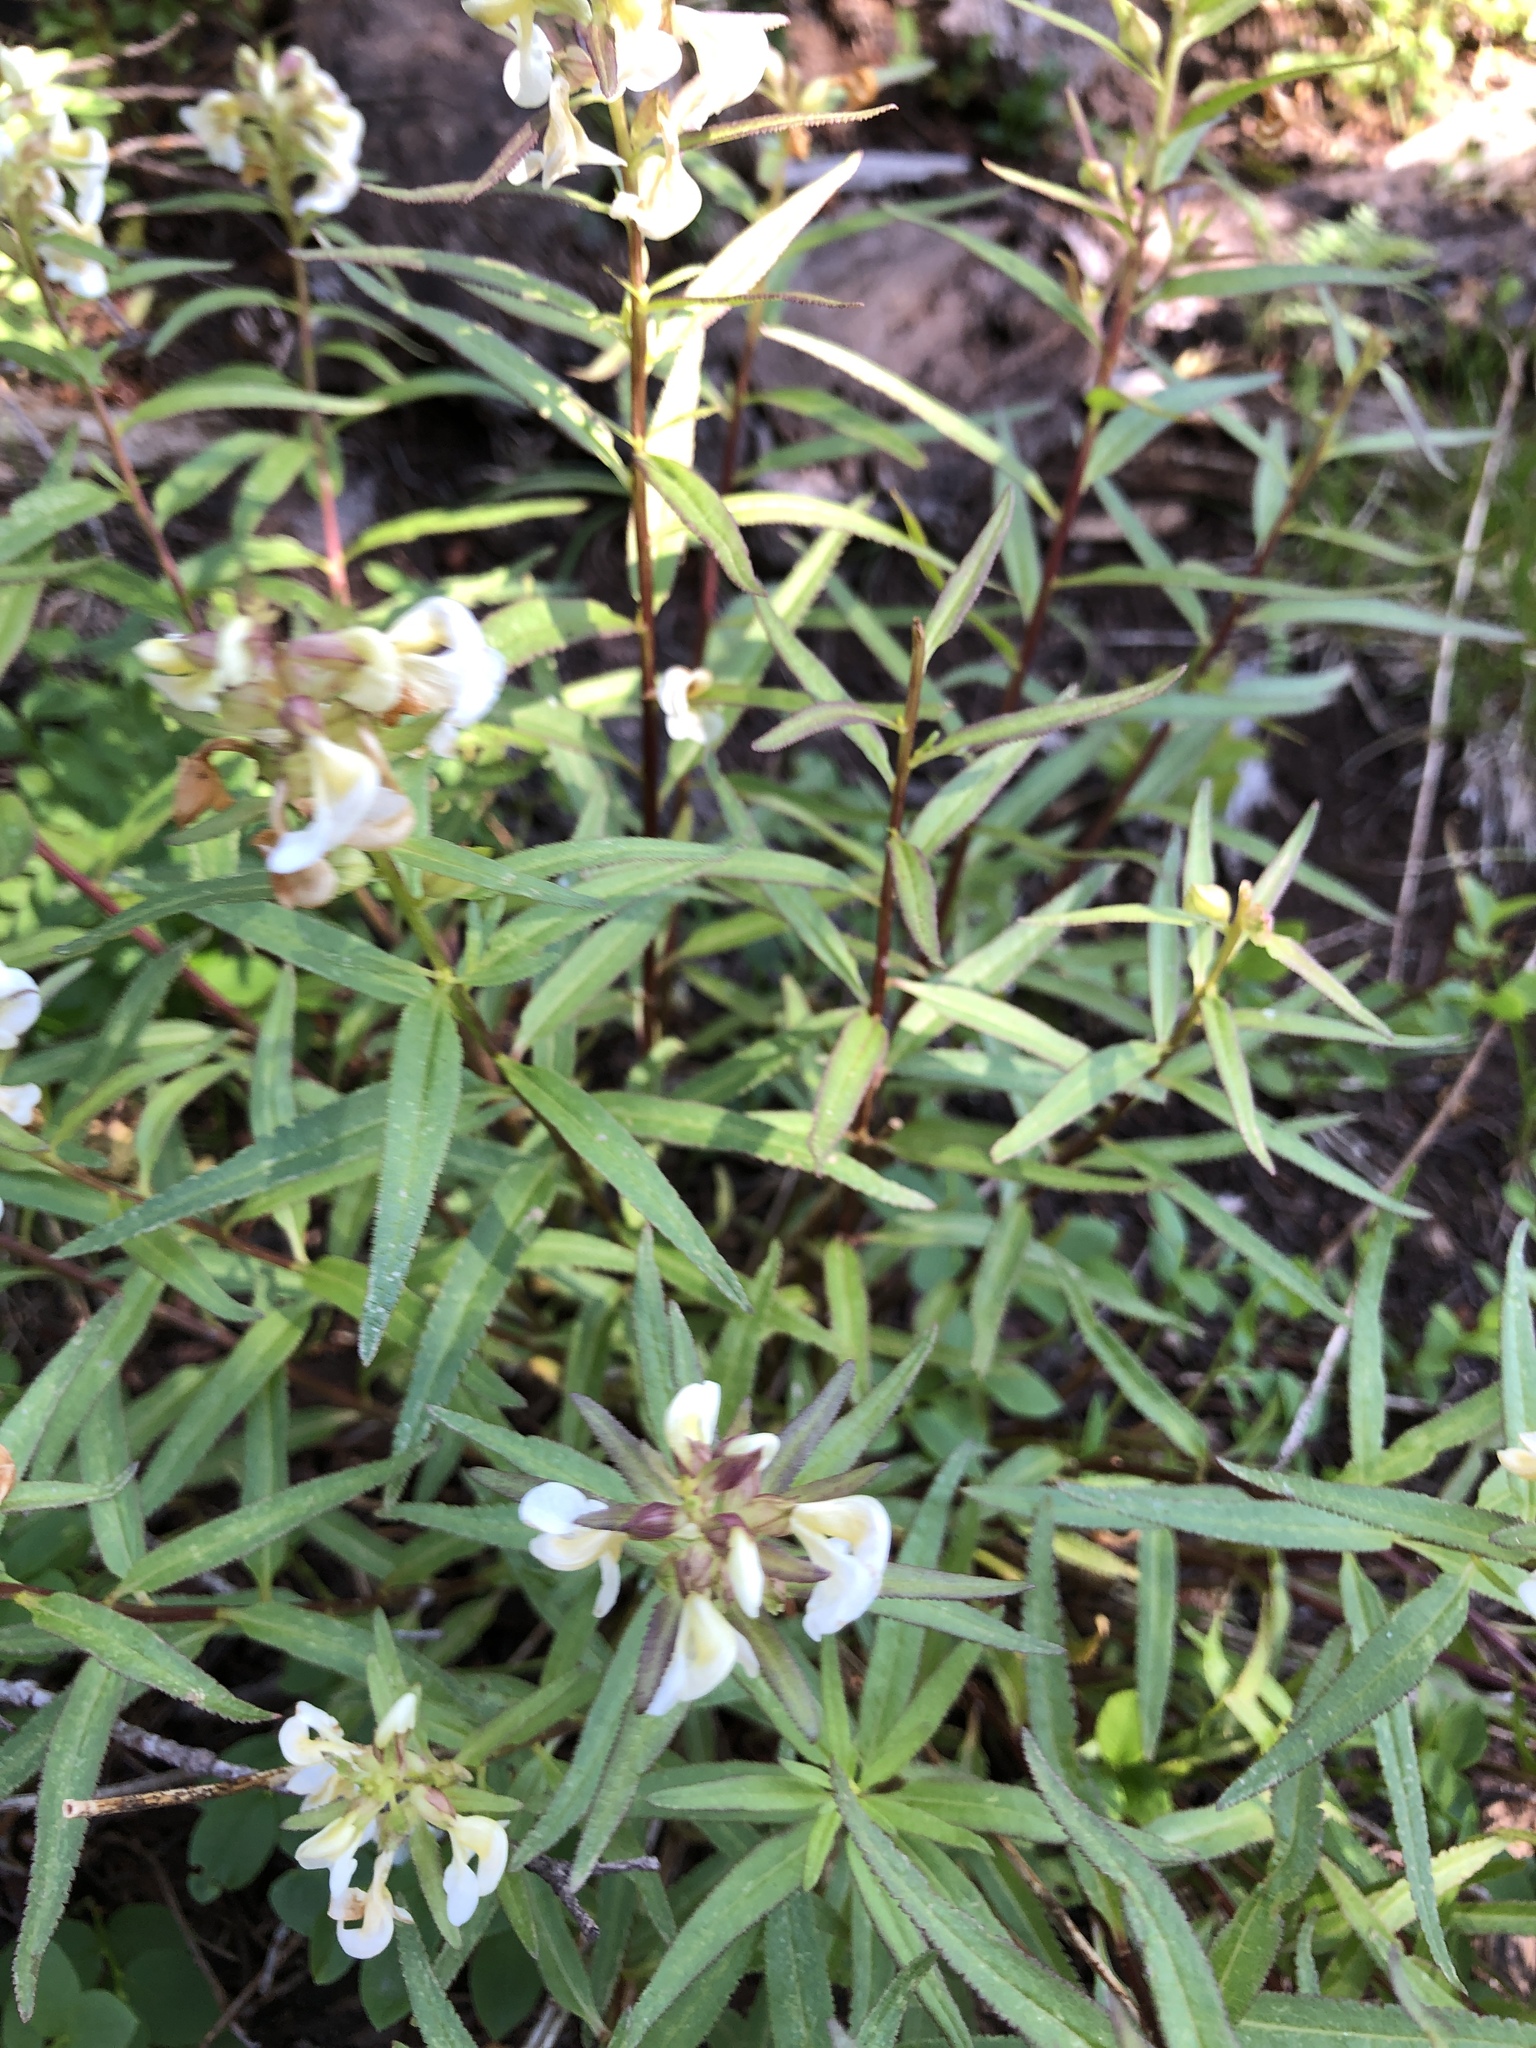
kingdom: Plantae
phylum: Tracheophyta
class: Magnoliopsida
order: Lamiales
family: Orobanchaceae
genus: Pedicularis
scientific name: Pedicularis racemosa
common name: Leafy lousewort
